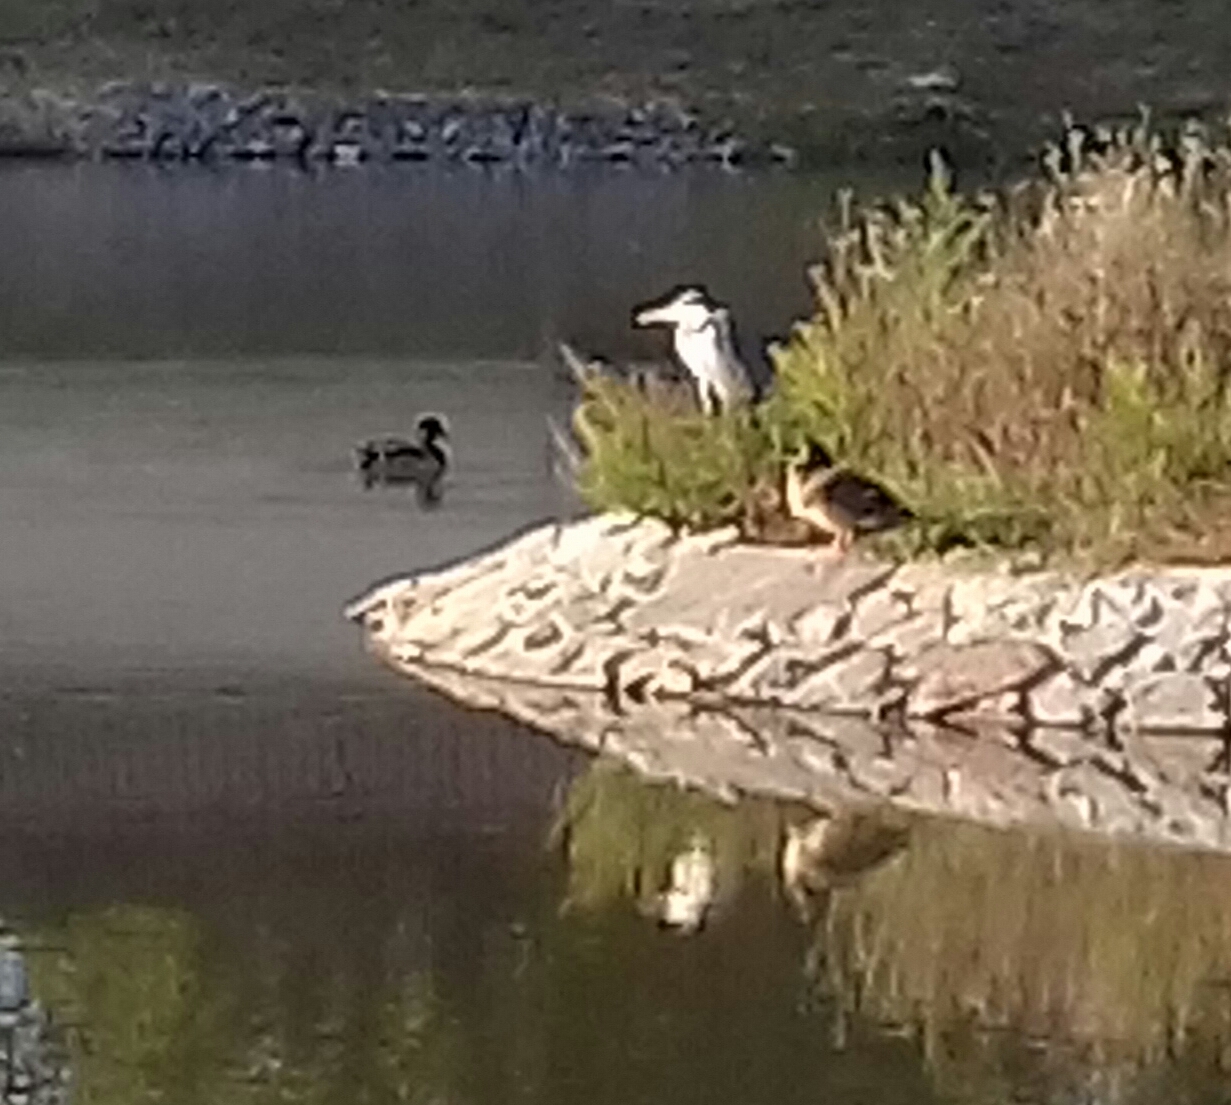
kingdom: Animalia
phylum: Chordata
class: Aves
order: Pelecaniformes
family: Ardeidae
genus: Ardea
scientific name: Ardea cinerea
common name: Grey heron
